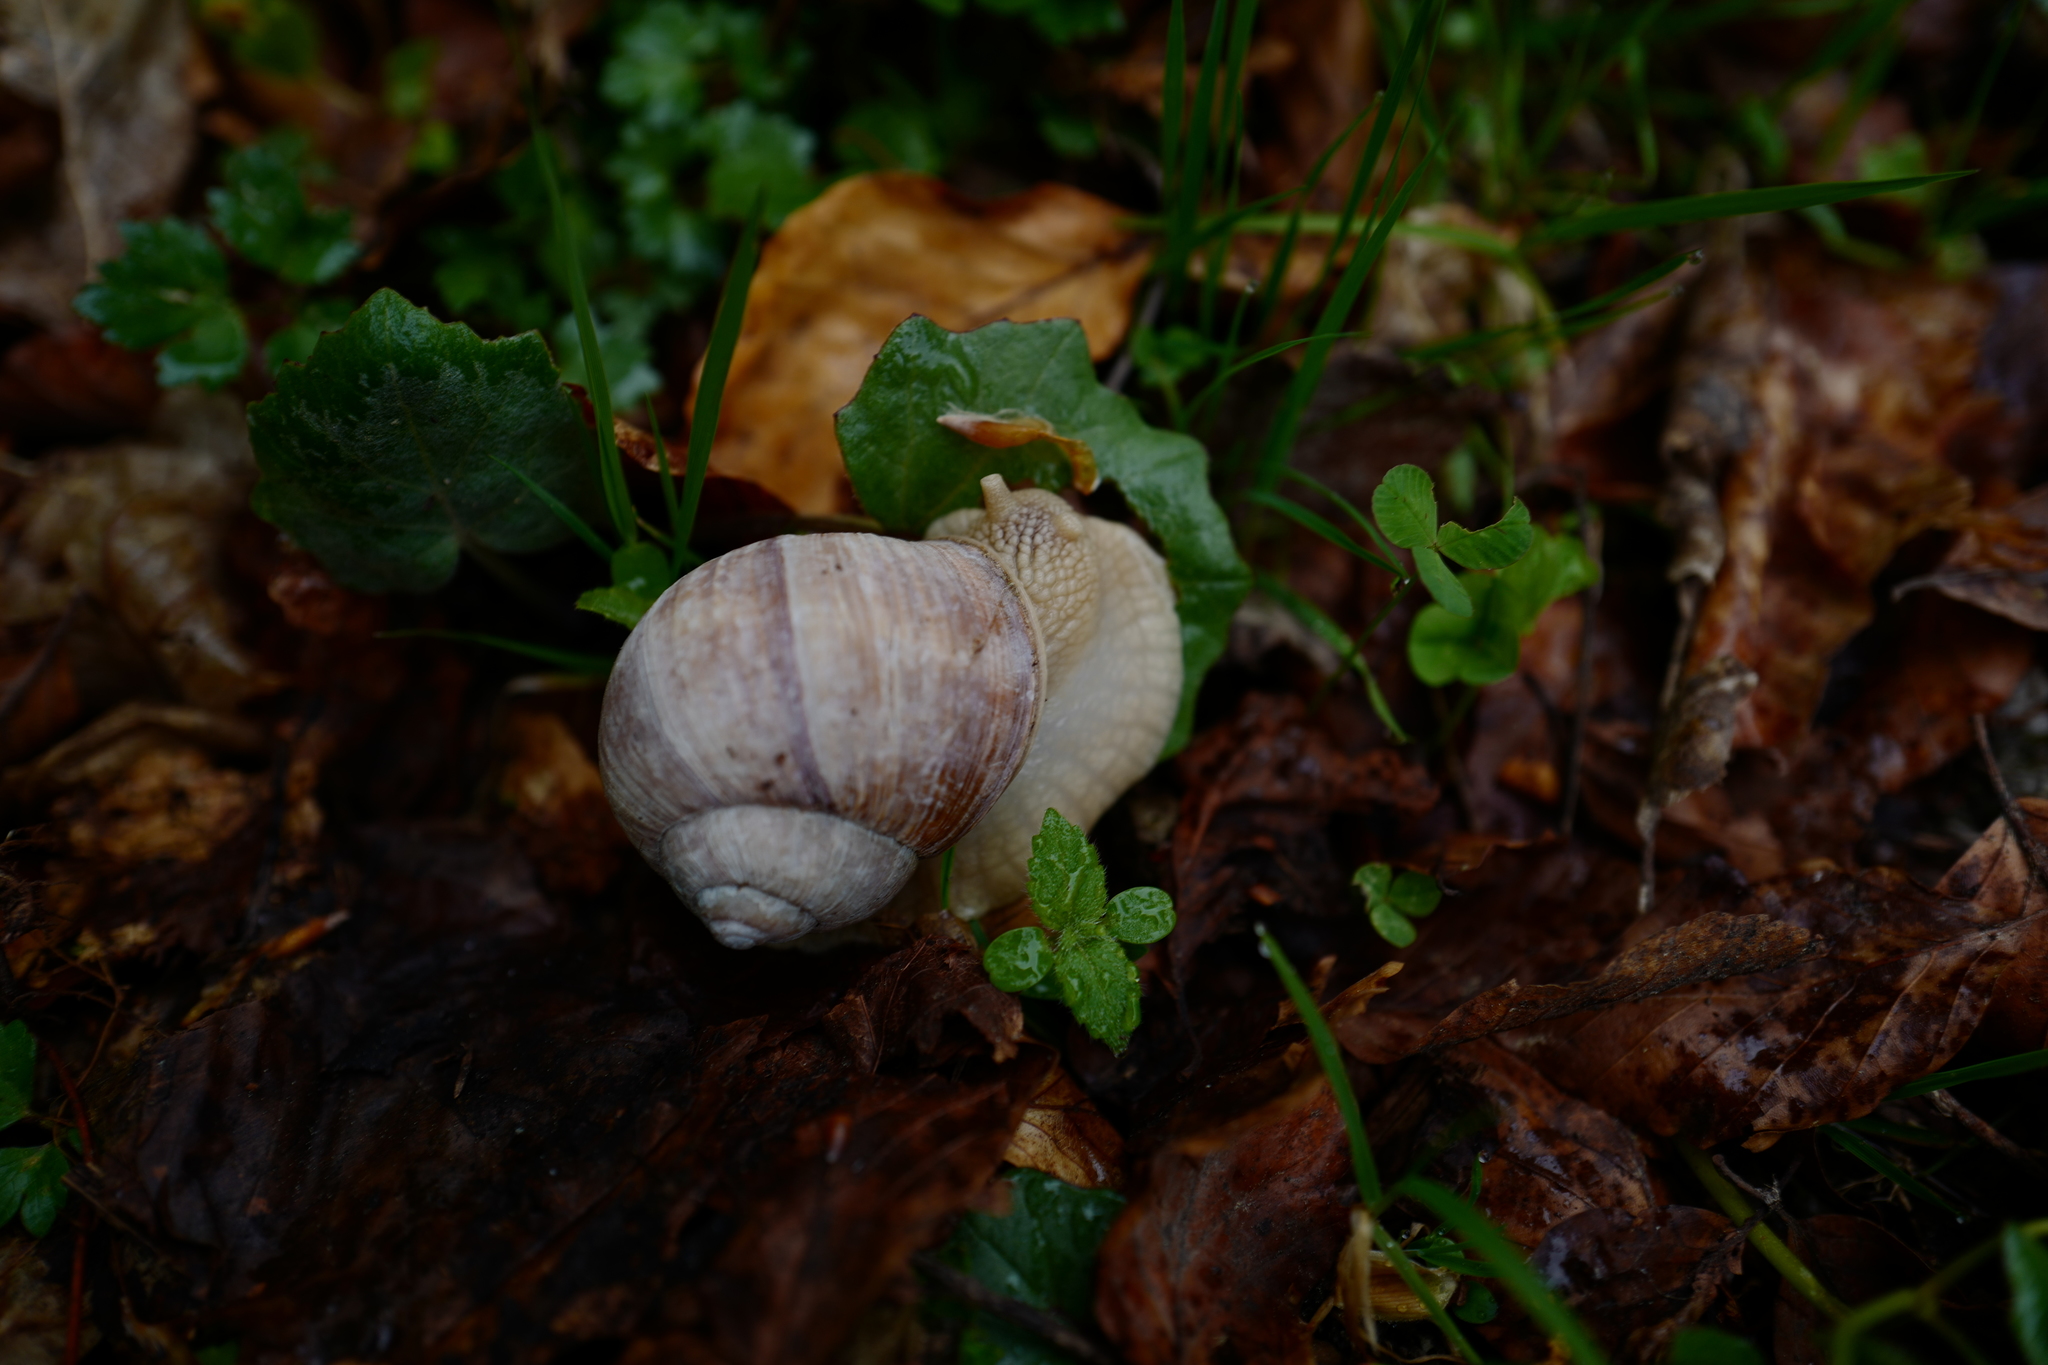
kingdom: Animalia
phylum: Mollusca
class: Gastropoda
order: Stylommatophora
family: Helicidae
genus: Helix
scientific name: Helix pomatia
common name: Roman snail
